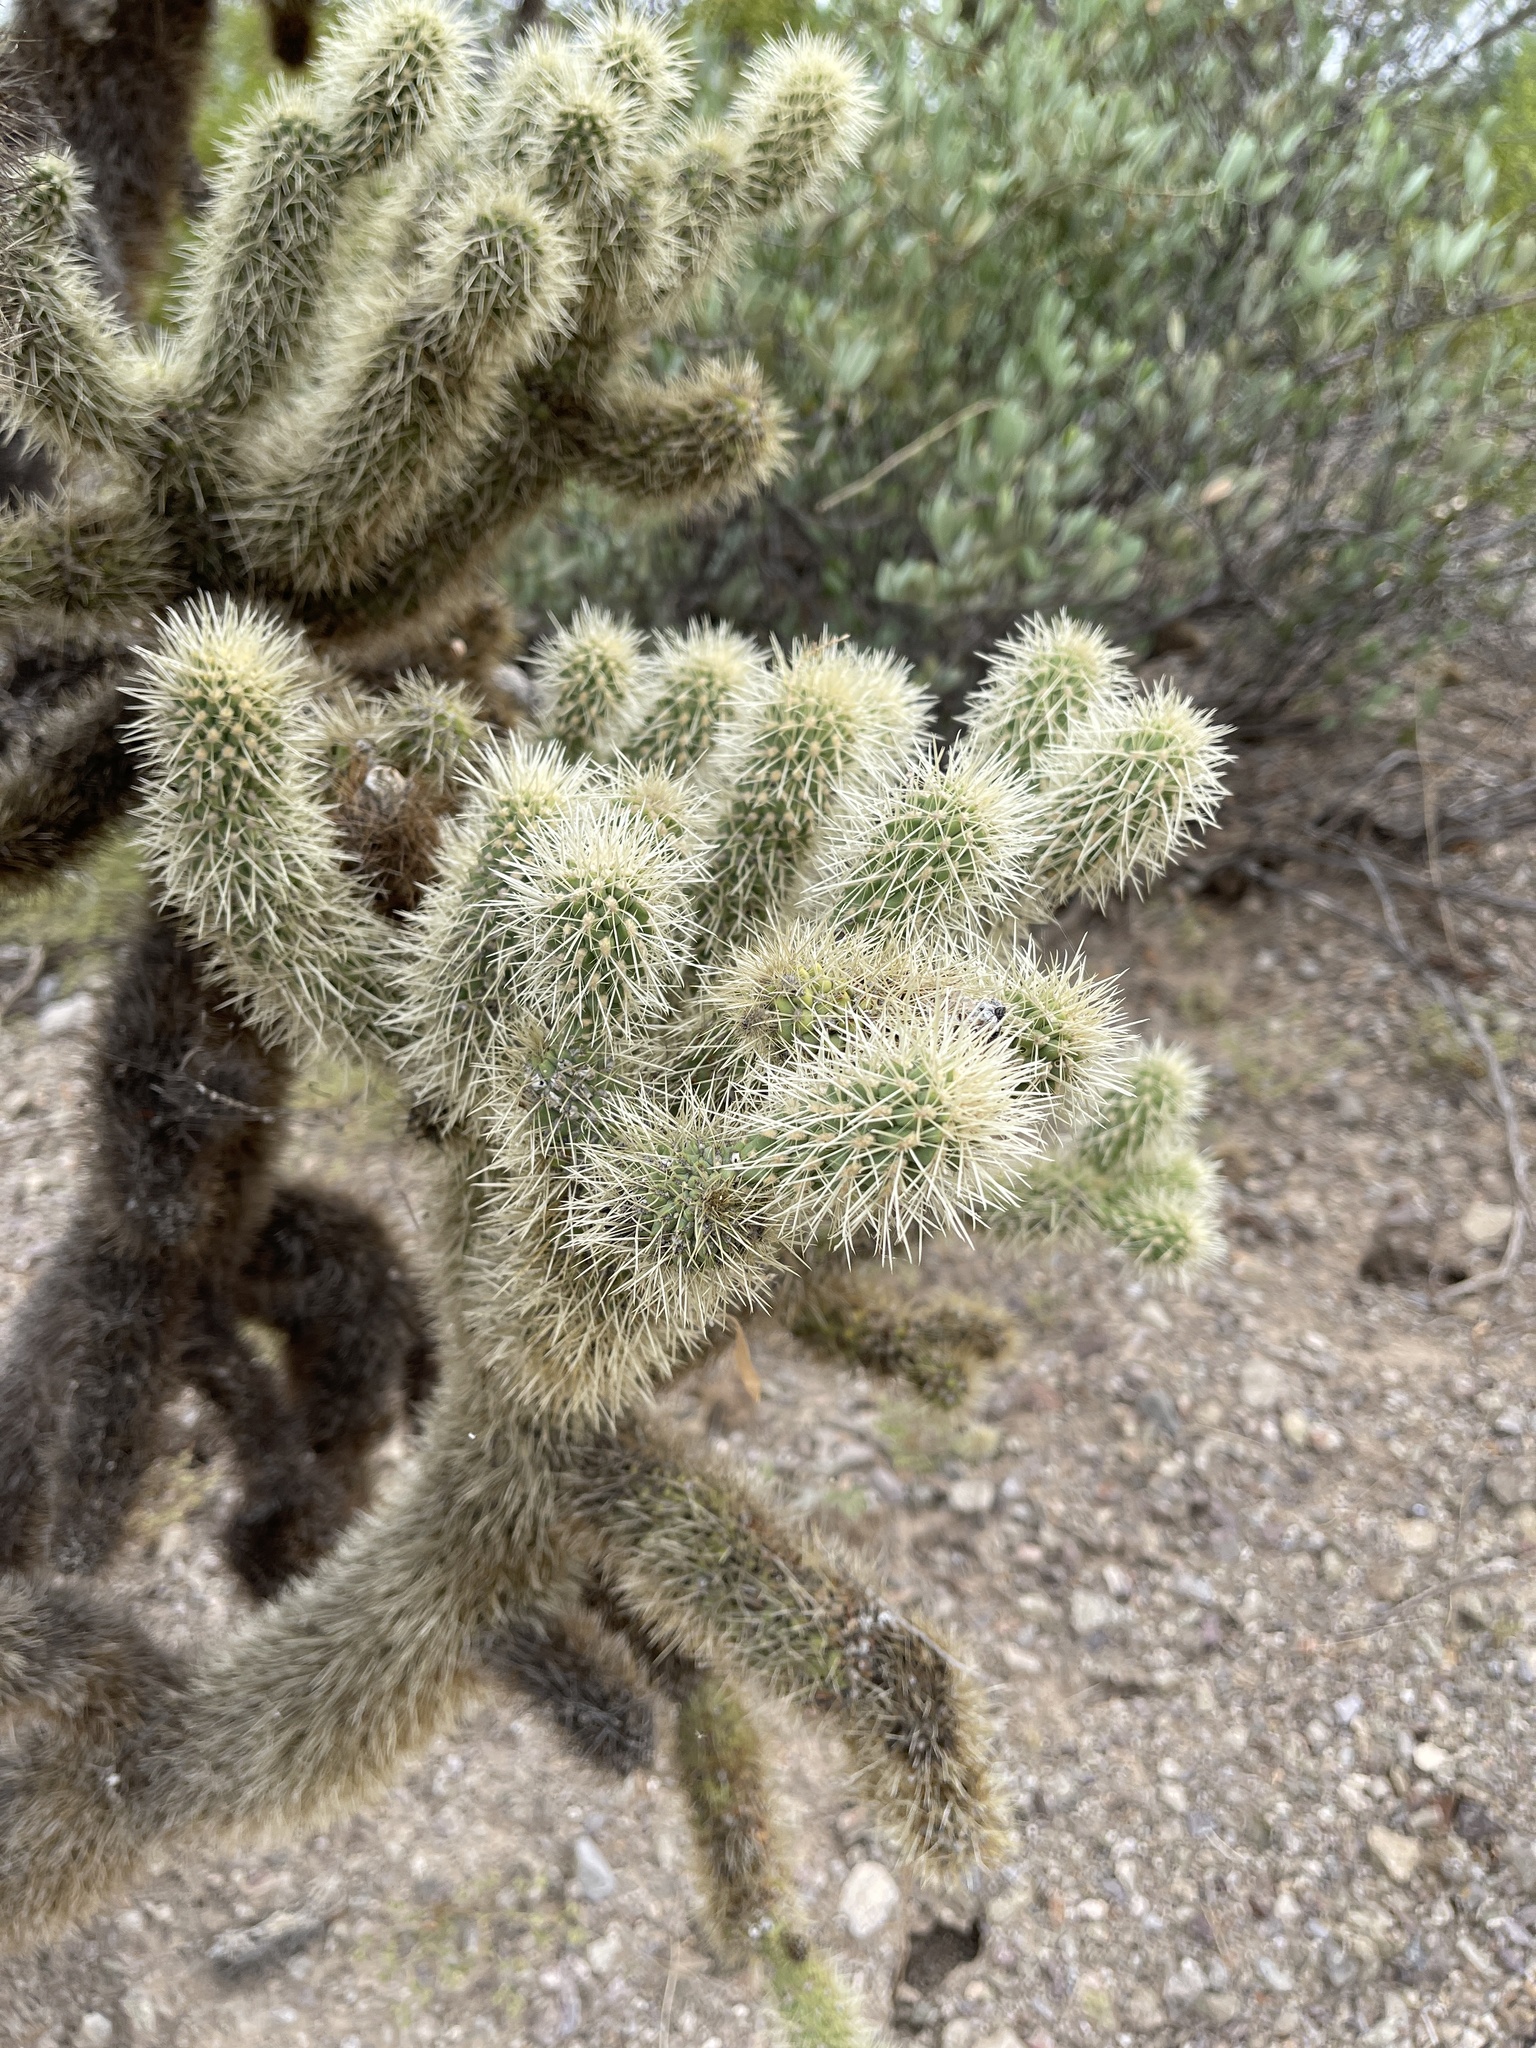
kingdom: Plantae
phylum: Tracheophyta
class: Magnoliopsida
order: Caryophyllales
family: Cactaceae
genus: Cylindropuntia
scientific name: Cylindropuntia fosbergii
